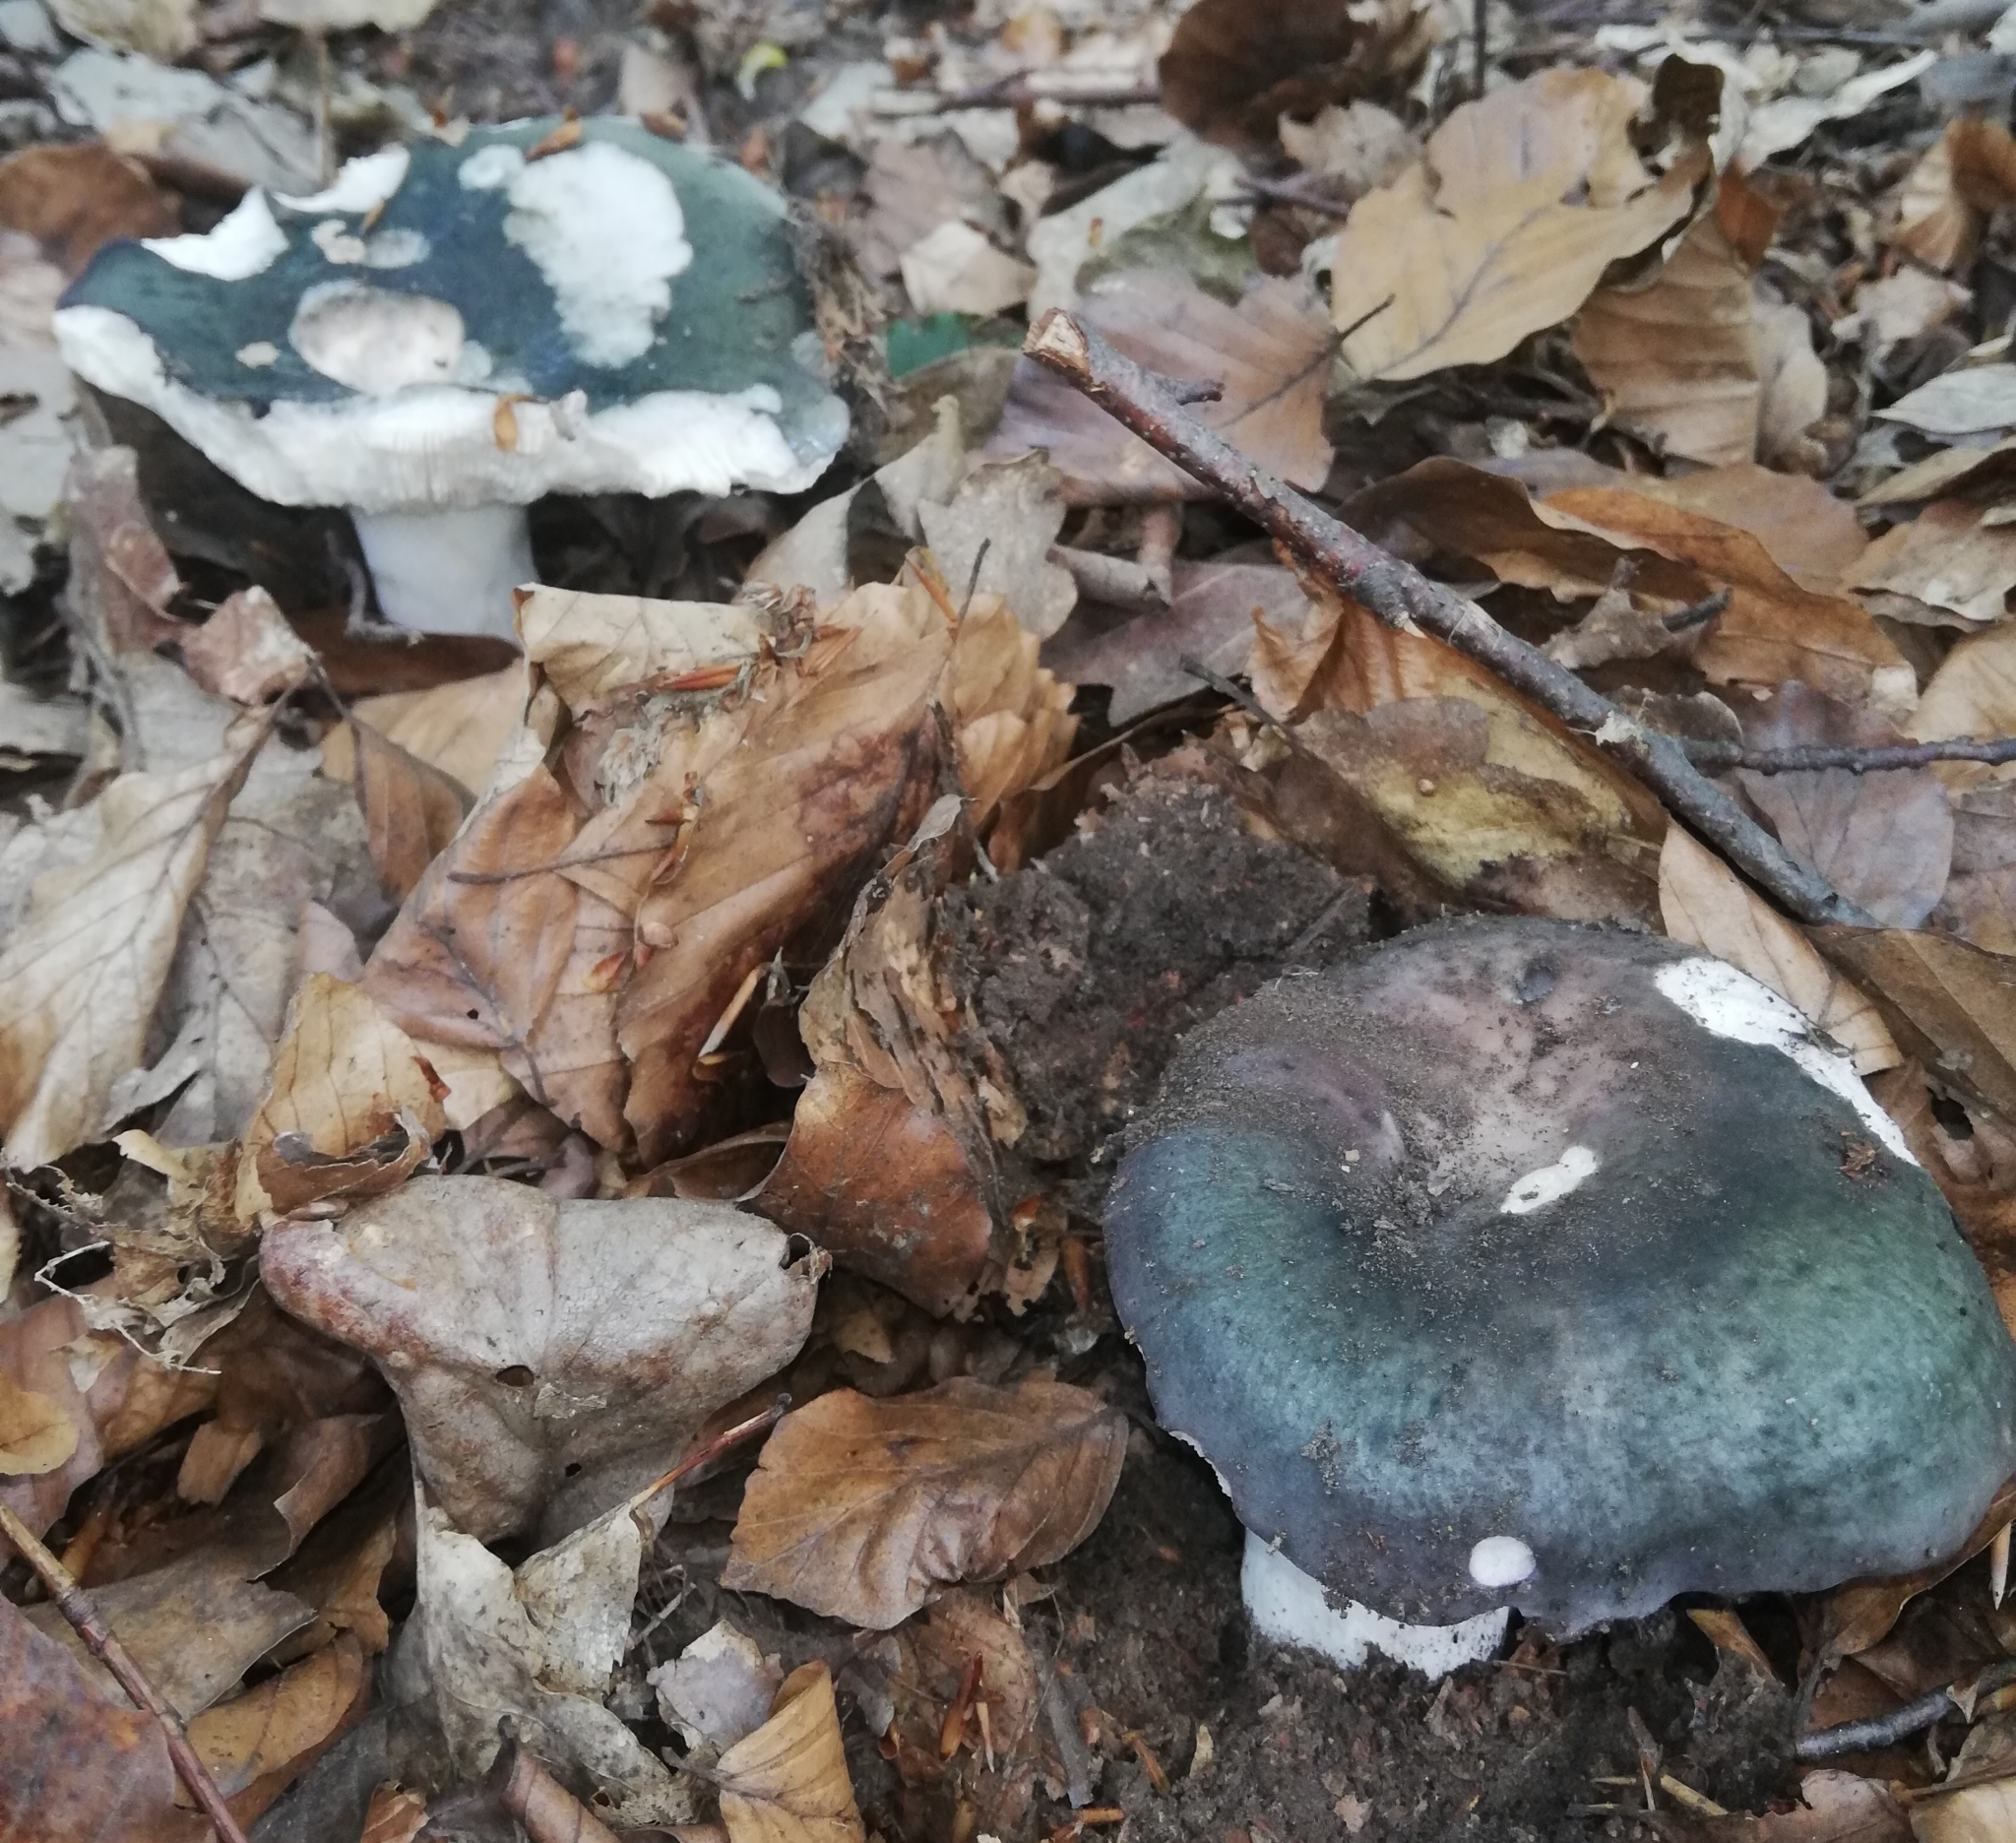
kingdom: Fungi
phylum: Basidiomycota
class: Agaricomycetes
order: Russulales
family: Russulaceae
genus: Russula
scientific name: Russula cyanoxantha
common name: Charcoal burner
